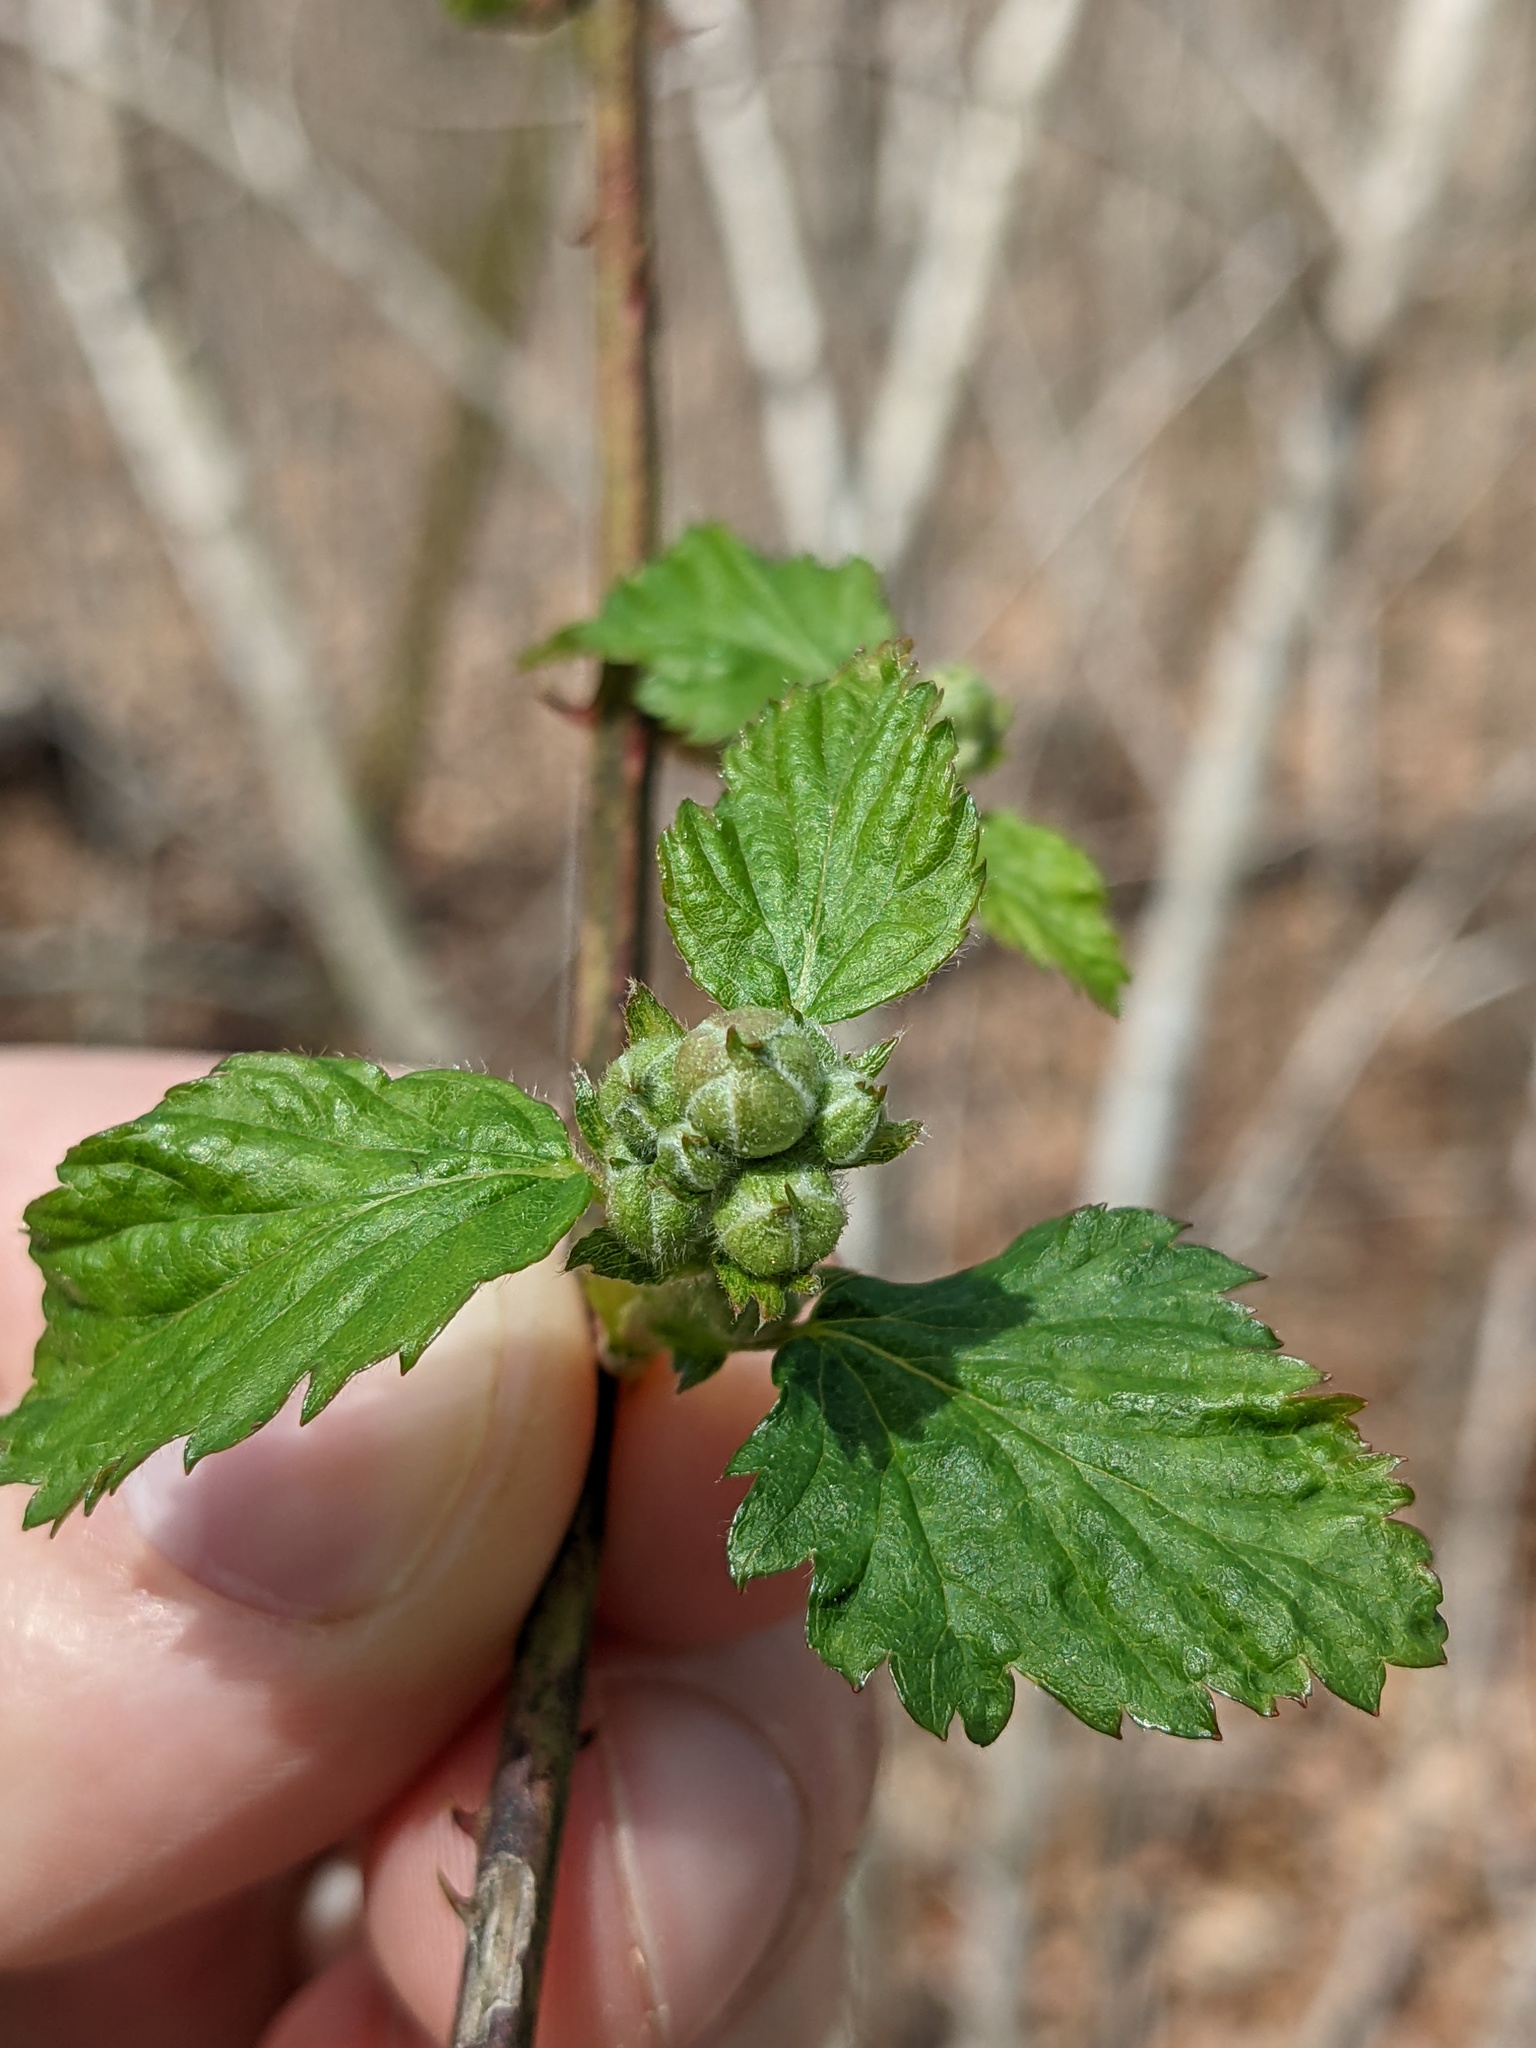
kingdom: Plantae
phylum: Tracheophyta
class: Magnoliopsida
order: Rosales
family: Rosaceae
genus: Rubus
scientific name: Rubus pensilvanicus
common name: Pennsylvania blackberry
